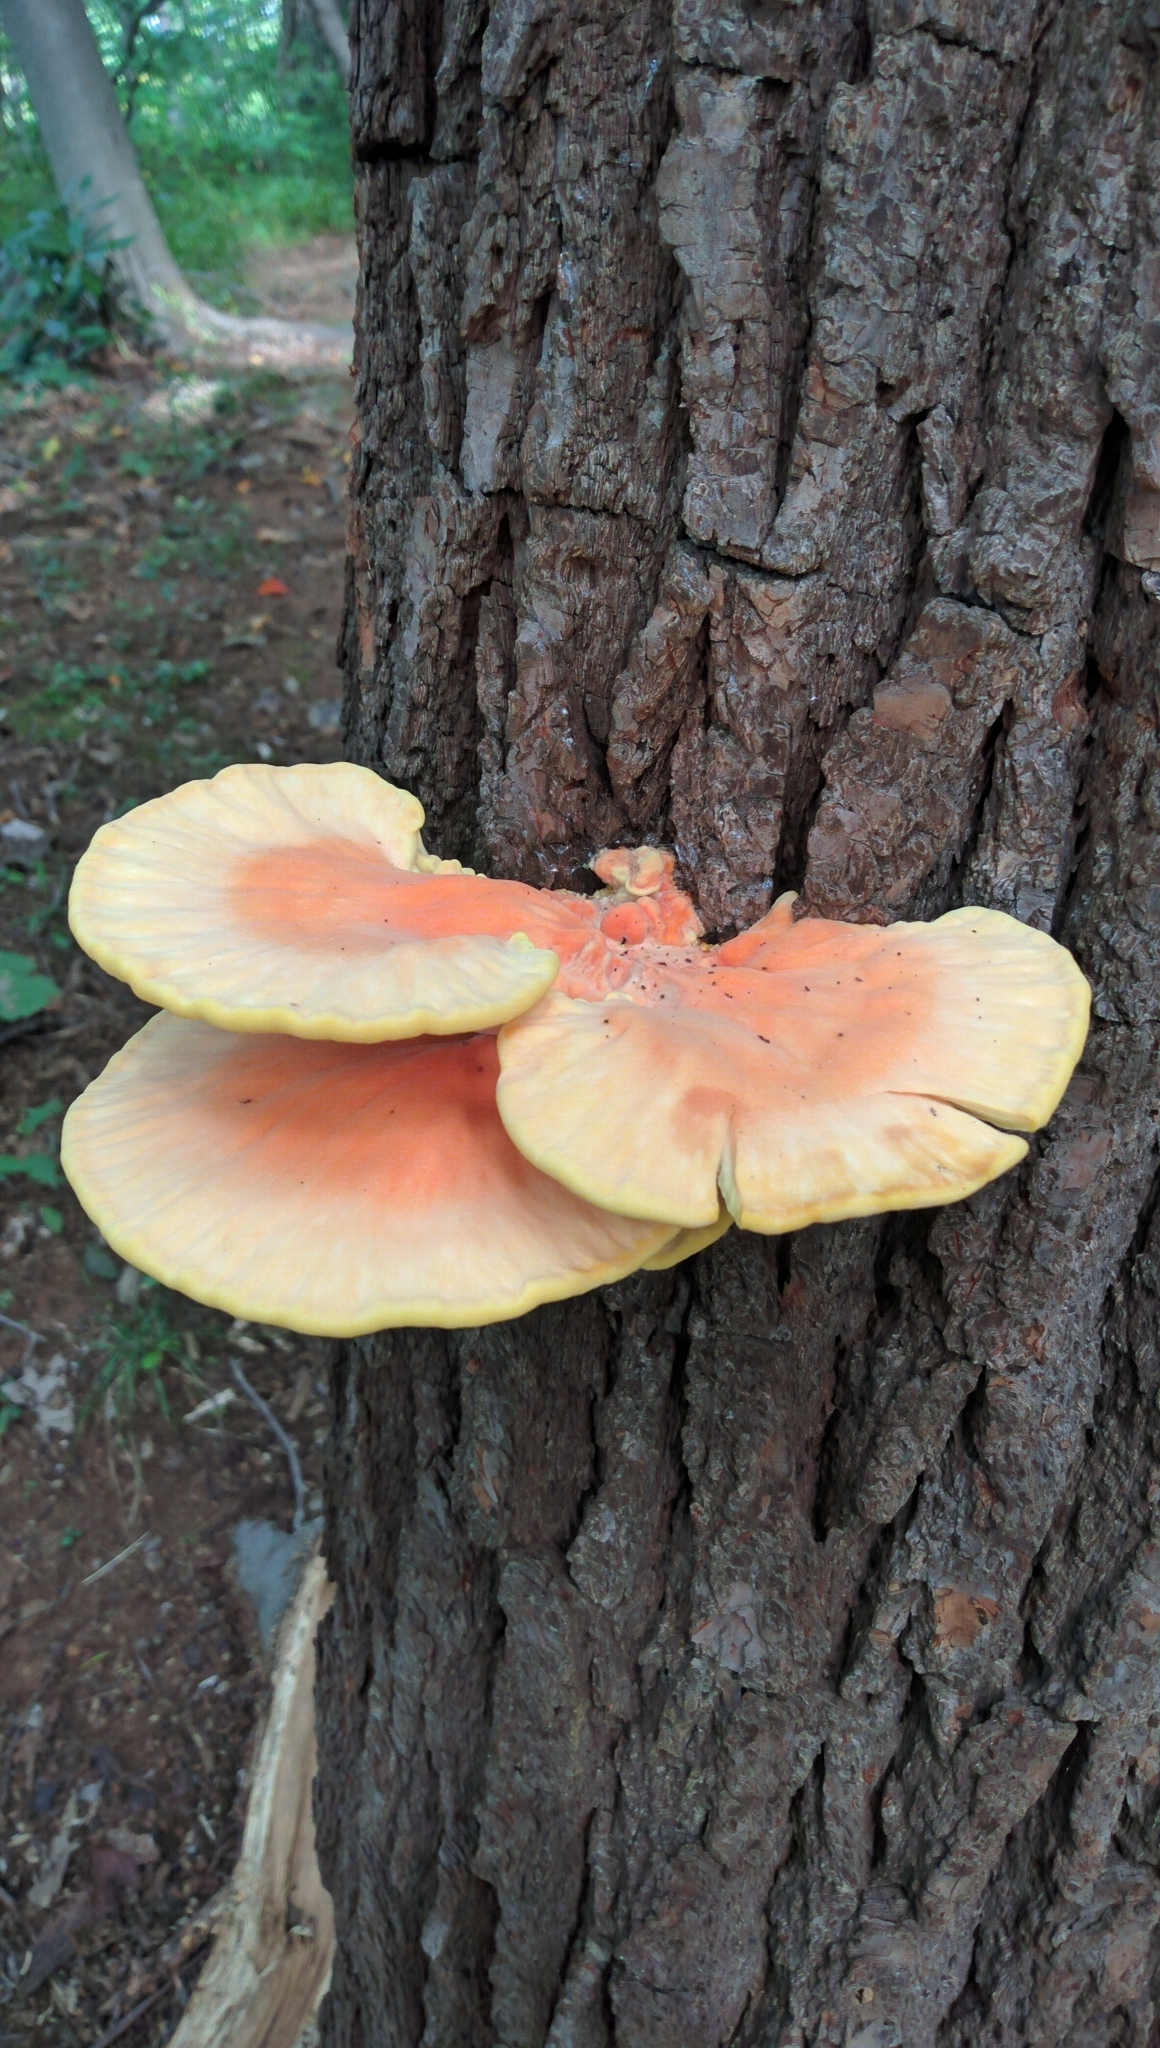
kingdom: Fungi
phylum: Basidiomycota
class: Agaricomycetes
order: Polyporales
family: Laetiporaceae
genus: Laetiporus
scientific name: Laetiporus sulphureus
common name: Chicken of the woods
